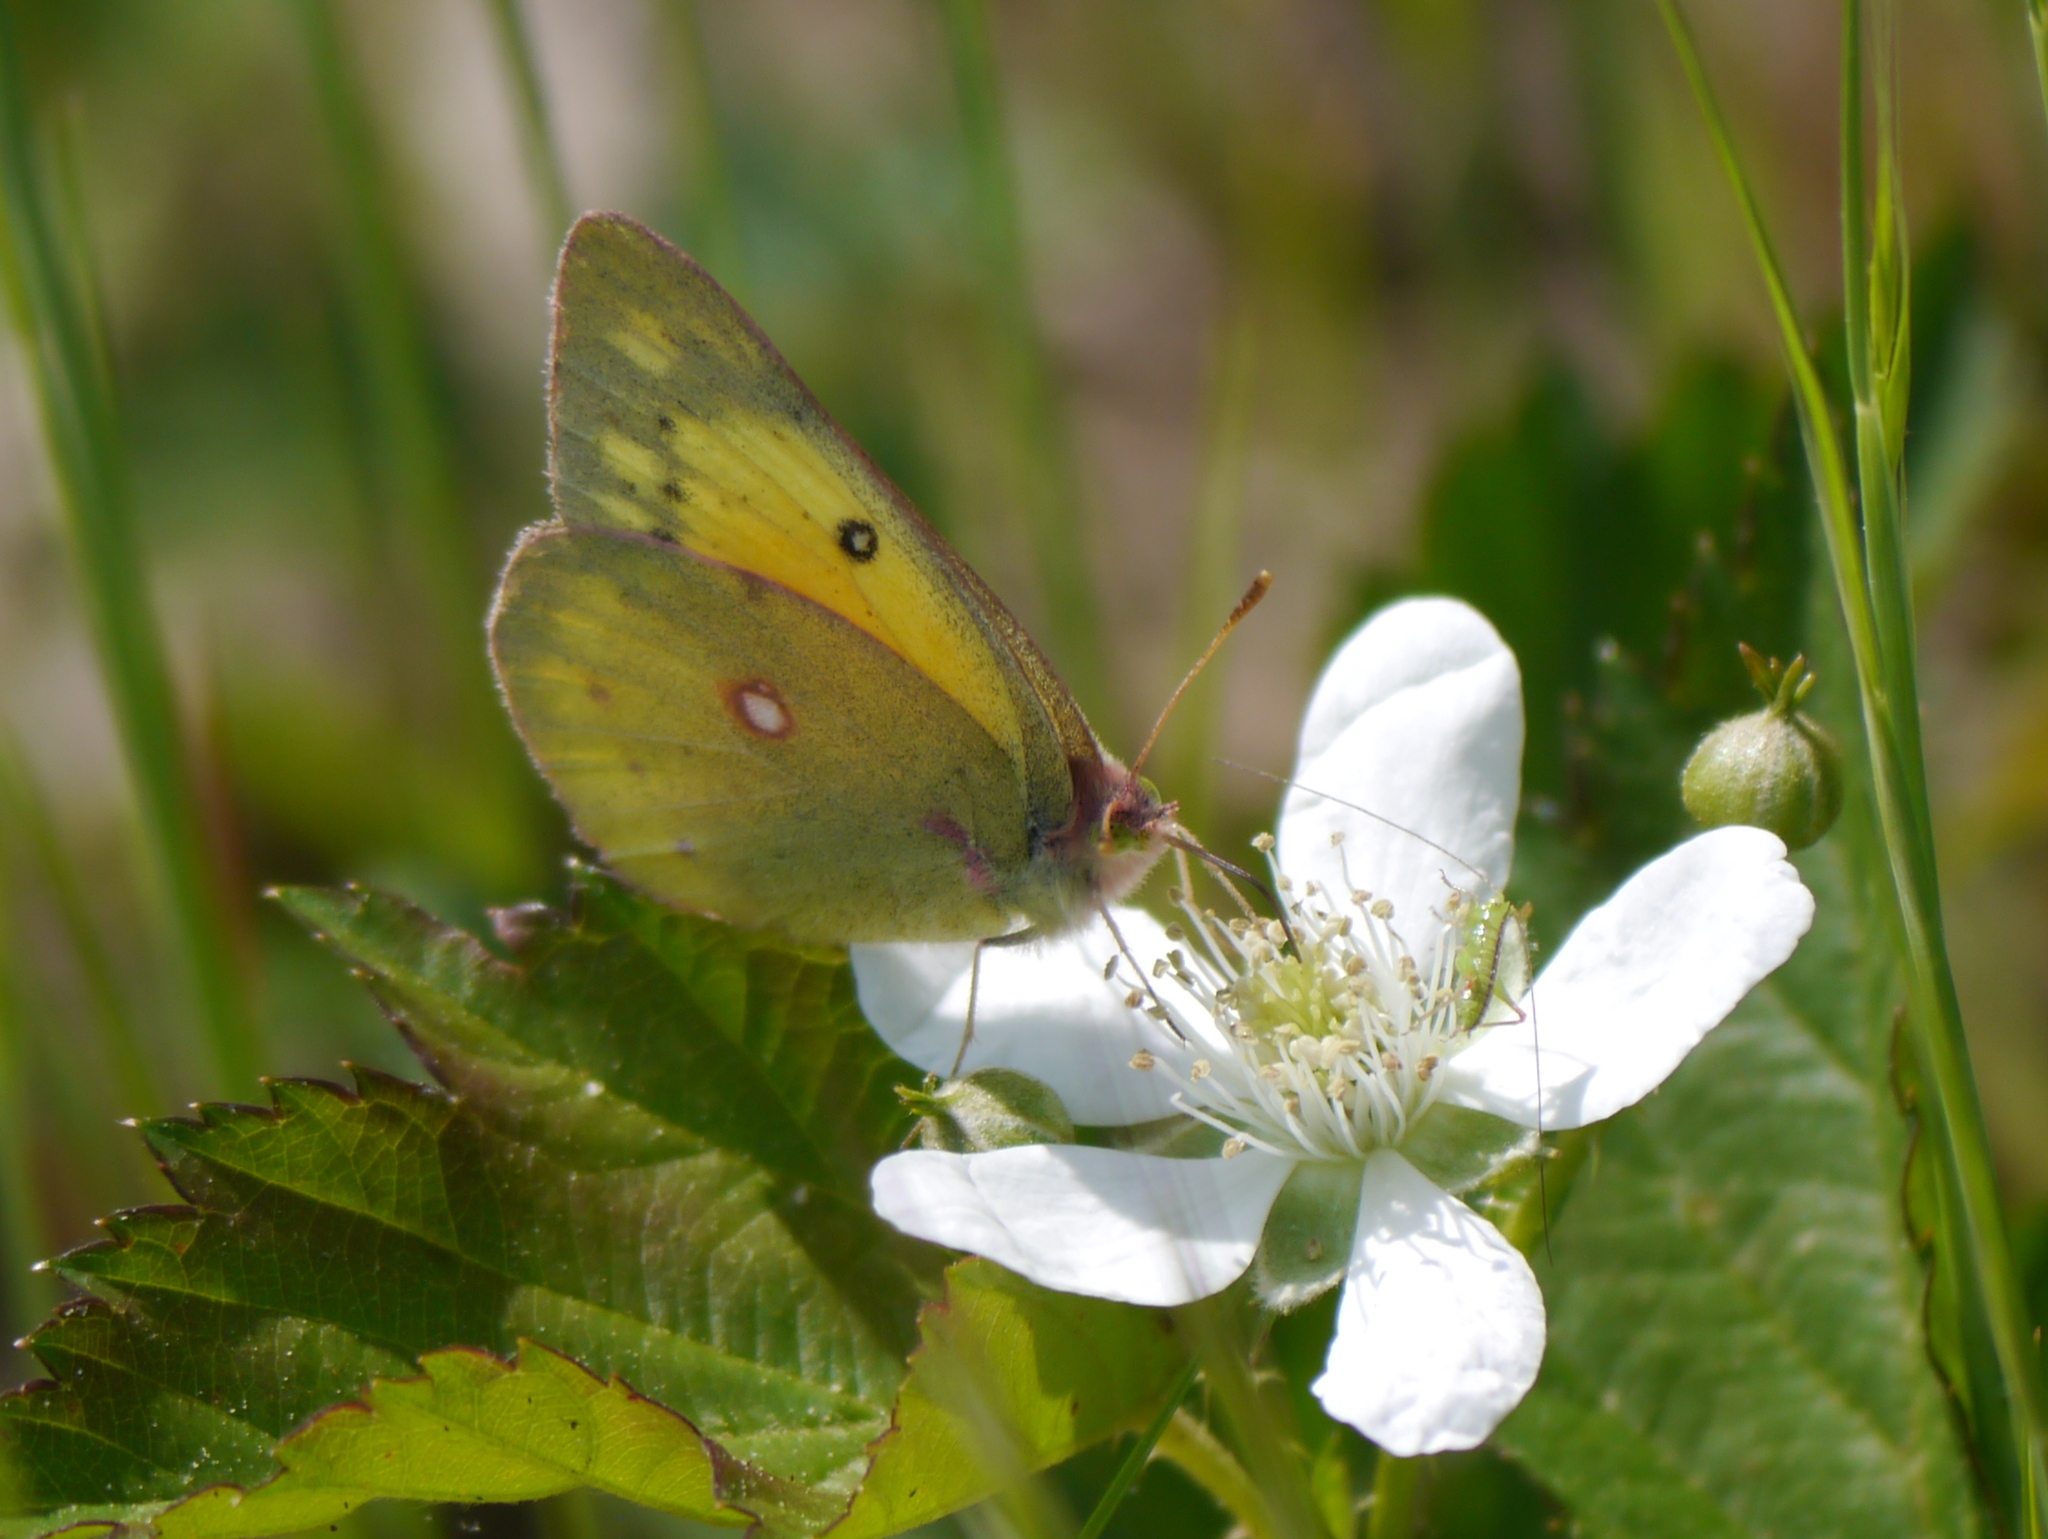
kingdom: Animalia
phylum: Arthropoda
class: Insecta
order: Lepidoptera
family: Pieridae
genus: Colias
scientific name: Colias eurytheme
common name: Alfalfa butterfly
